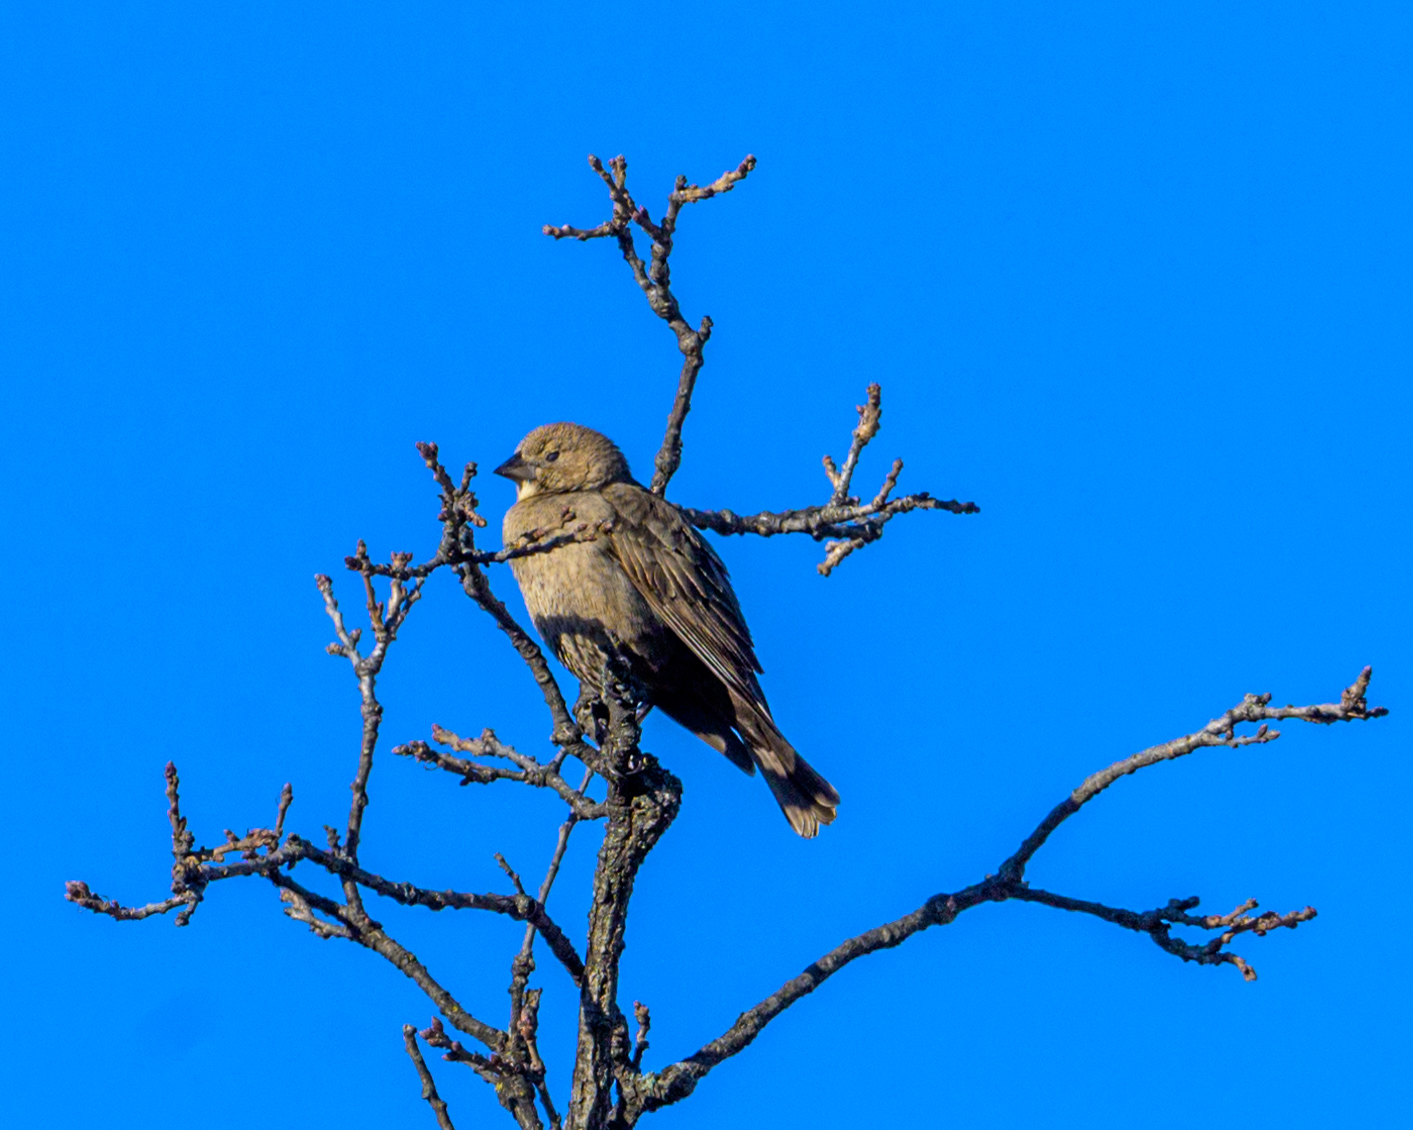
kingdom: Animalia
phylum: Chordata
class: Aves
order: Passeriformes
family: Icteridae
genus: Molothrus
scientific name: Molothrus ater
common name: Brown-headed cowbird
